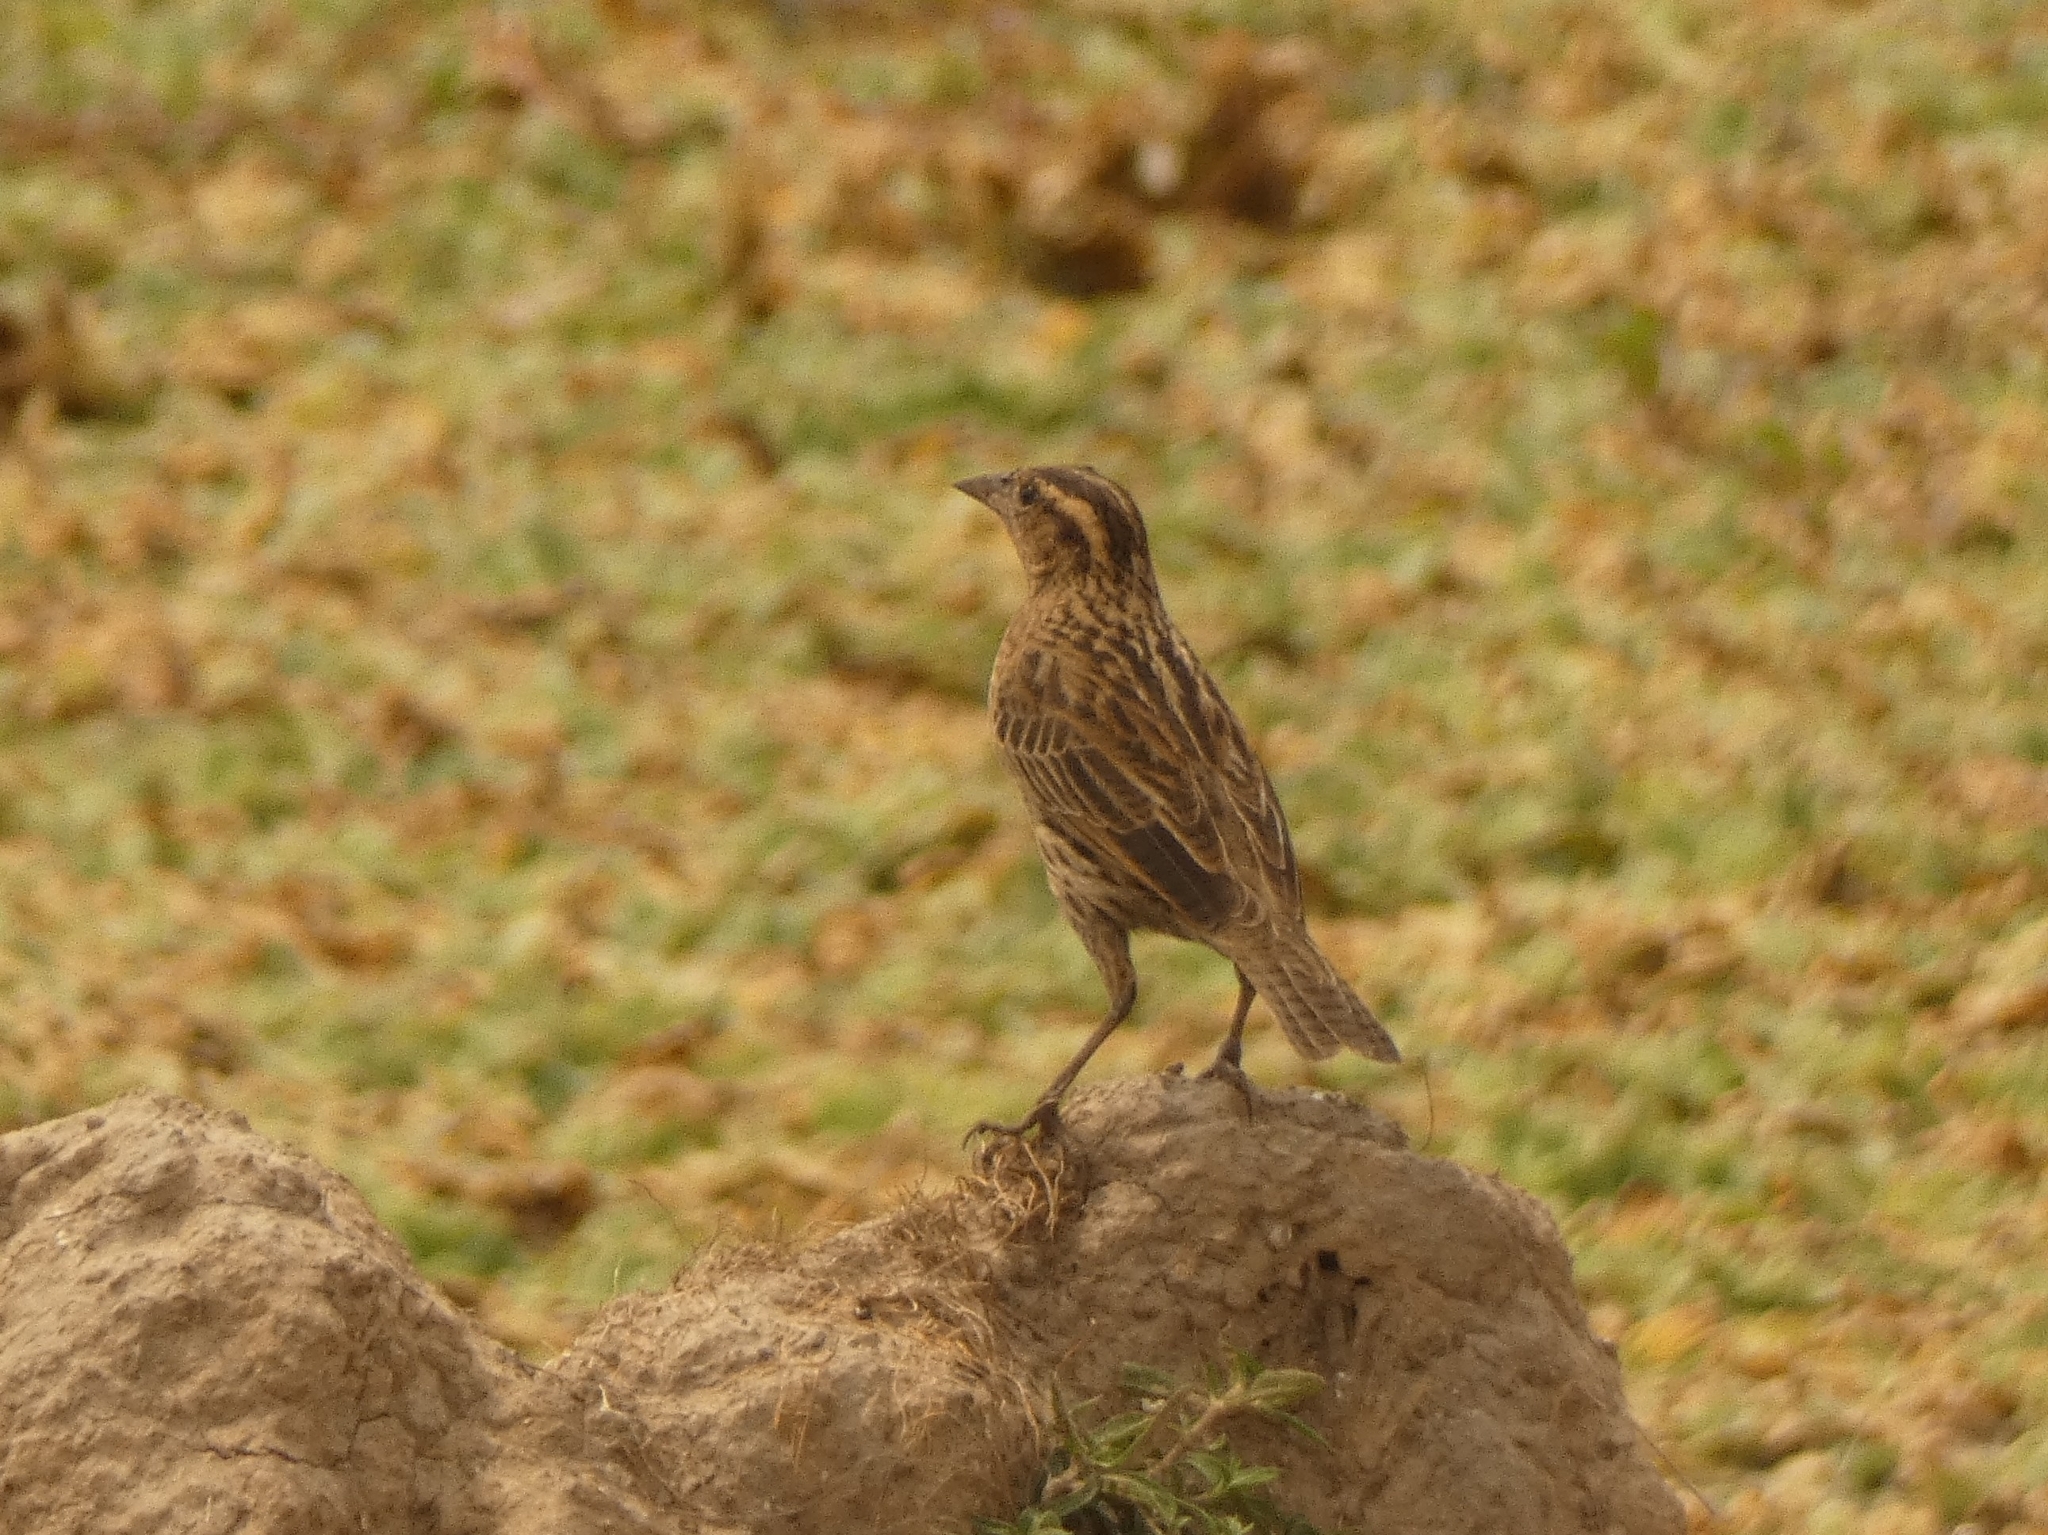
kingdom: Animalia
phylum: Chordata
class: Aves
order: Passeriformes
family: Icteridae
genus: Sturnella
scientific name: Sturnella superciliaris
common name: White-browed blackbird
